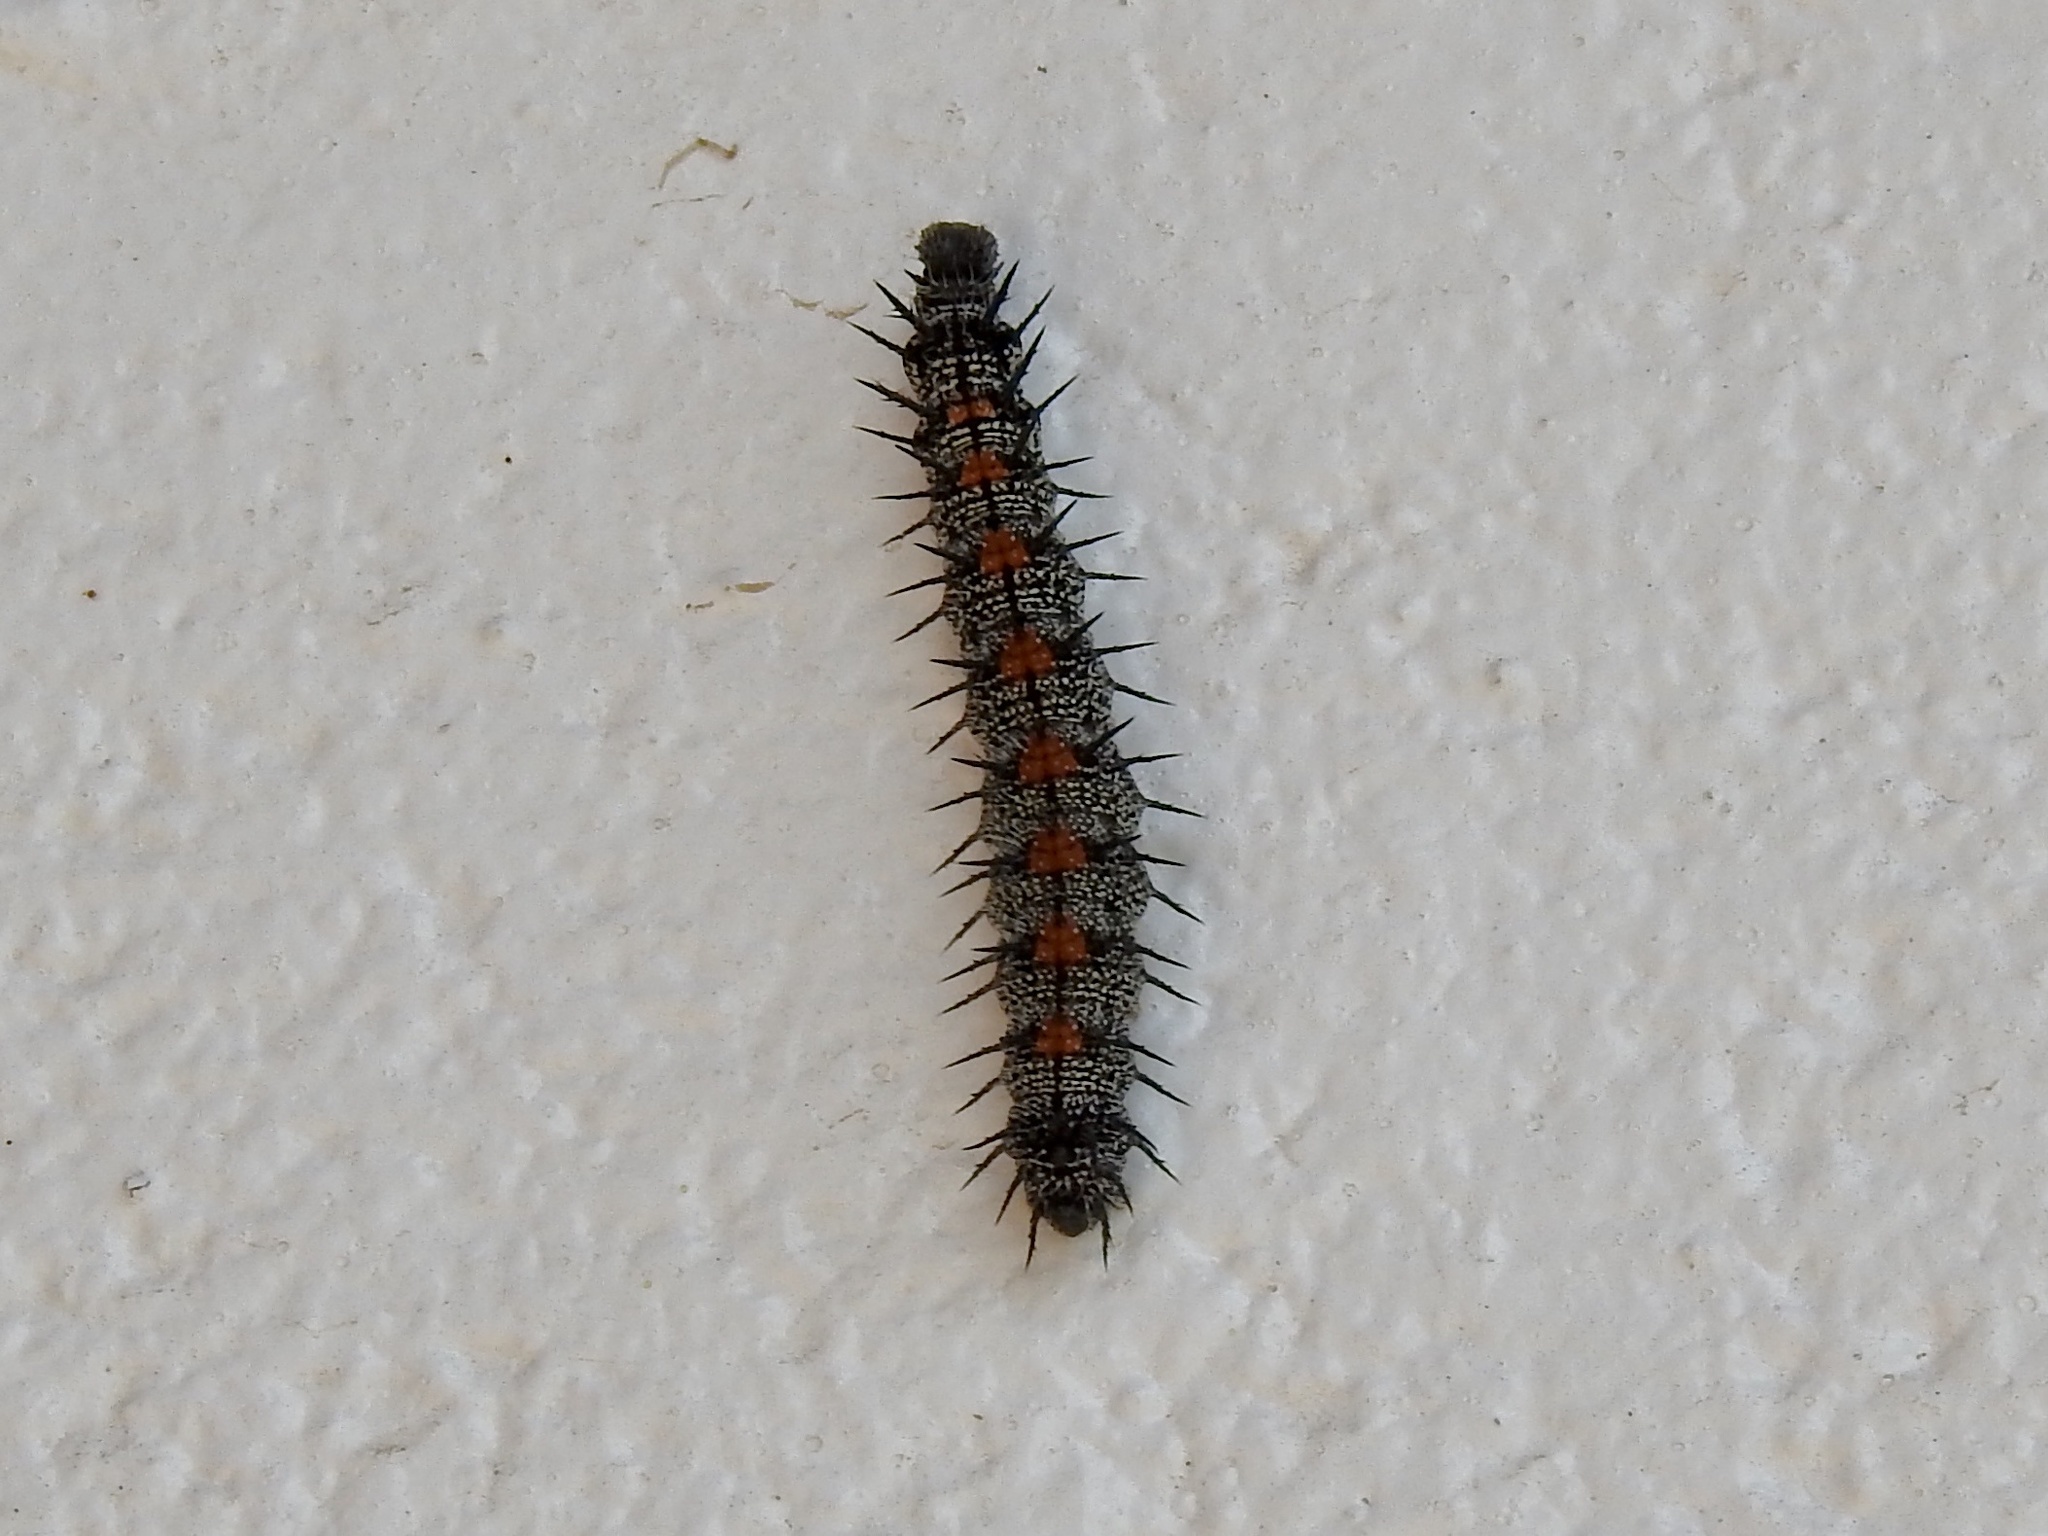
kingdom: Animalia
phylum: Arthropoda
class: Insecta
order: Lepidoptera
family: Nymphalidae
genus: Nymphalis
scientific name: Nymphalis antiopa
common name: Camberwell beauty
